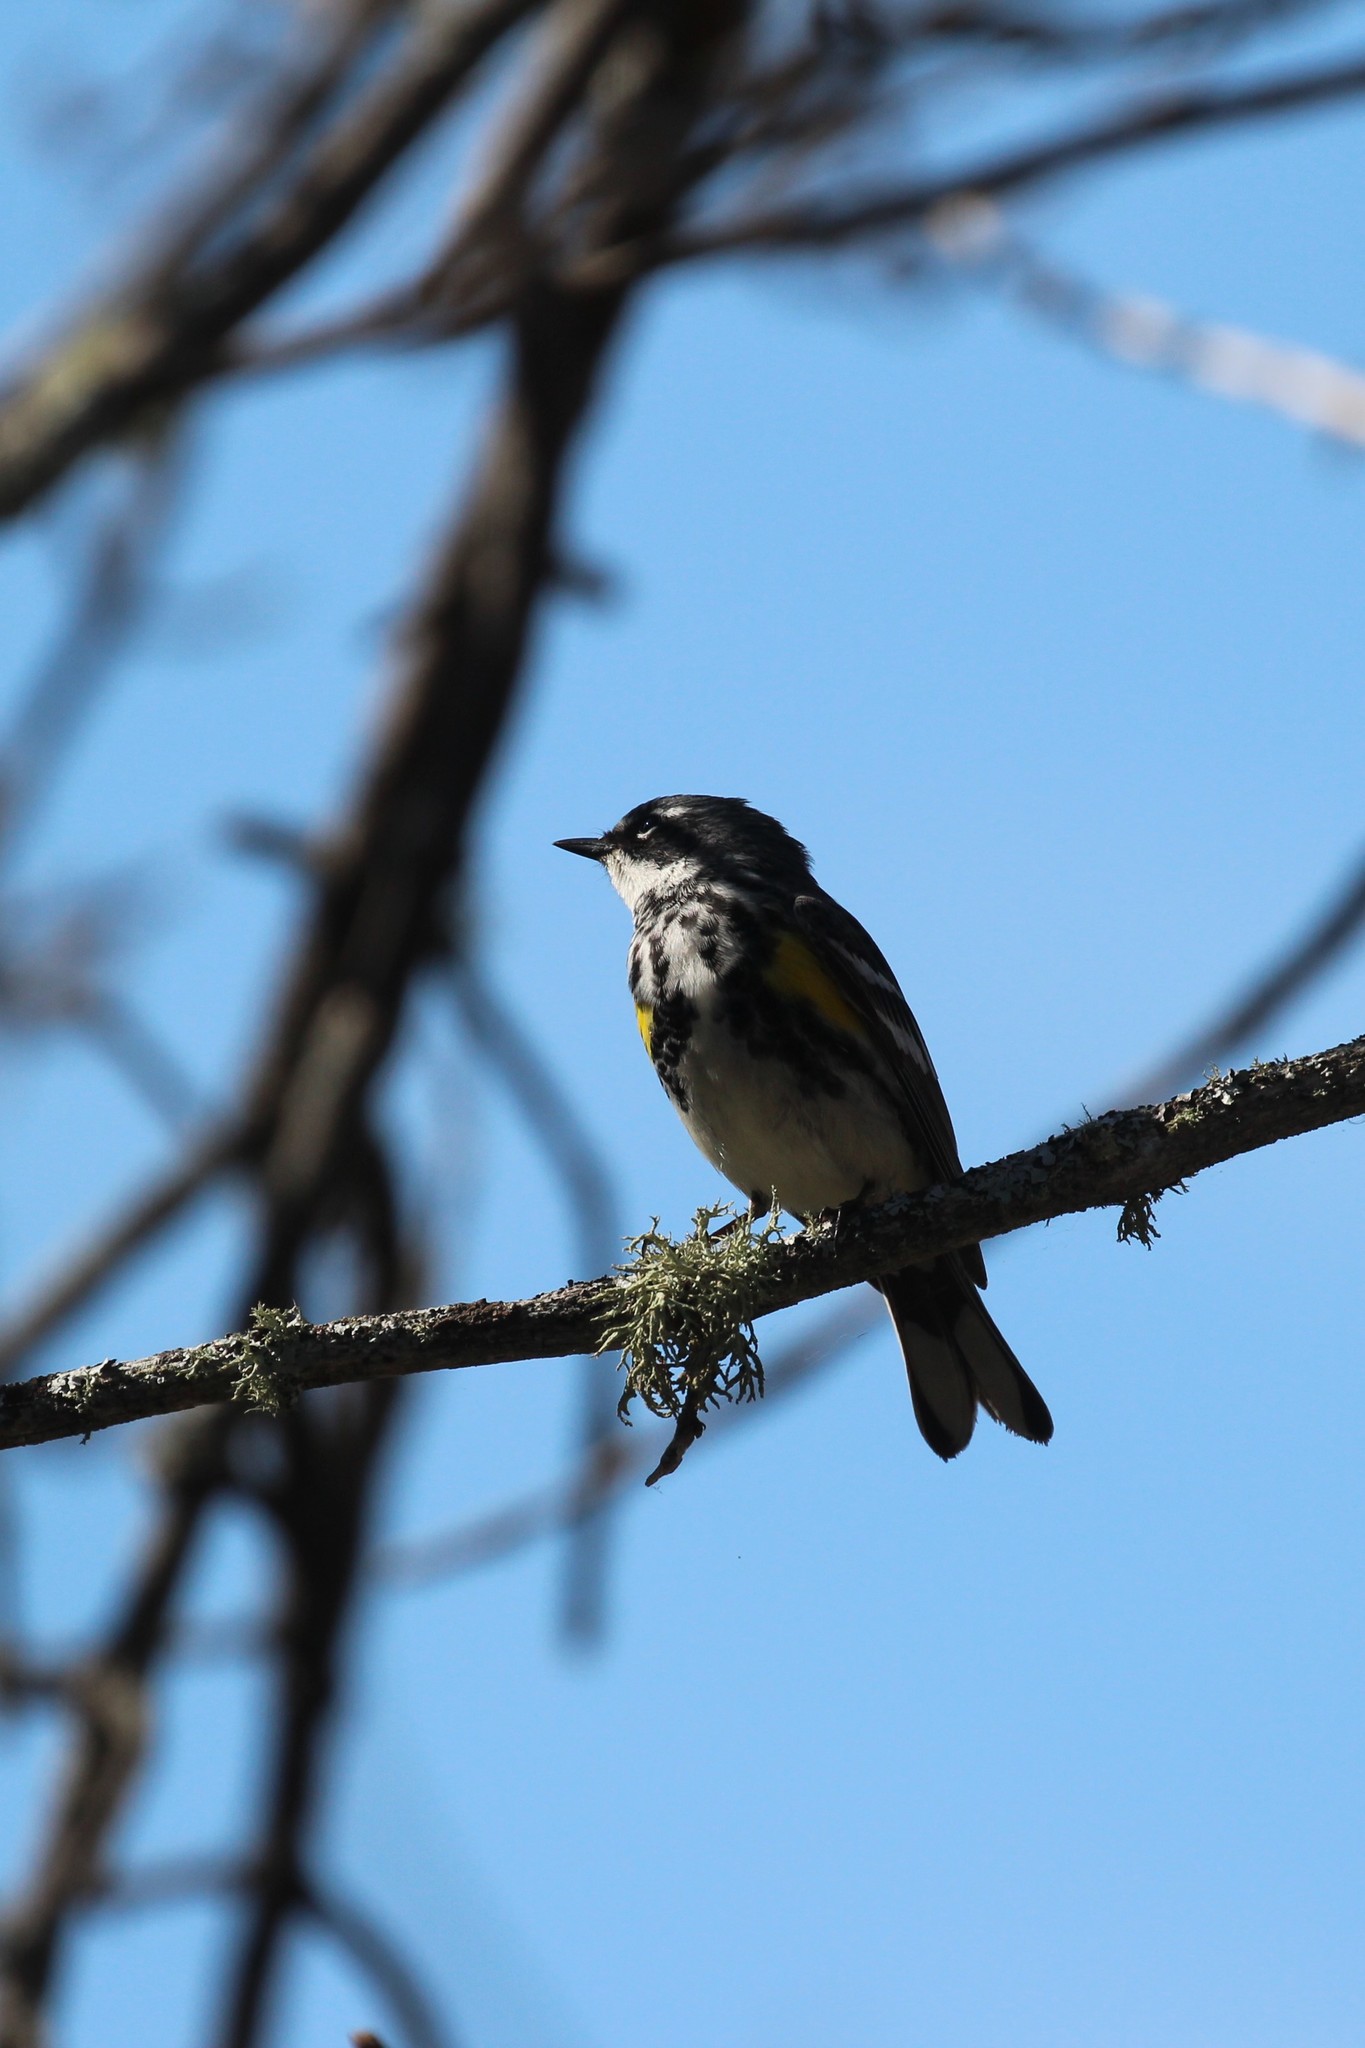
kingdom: Animalia
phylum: Chordata
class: Aves
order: Passeriformes
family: Parulidae
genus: Setophaga
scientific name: Setophaga coronata
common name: Myrtle warbler
